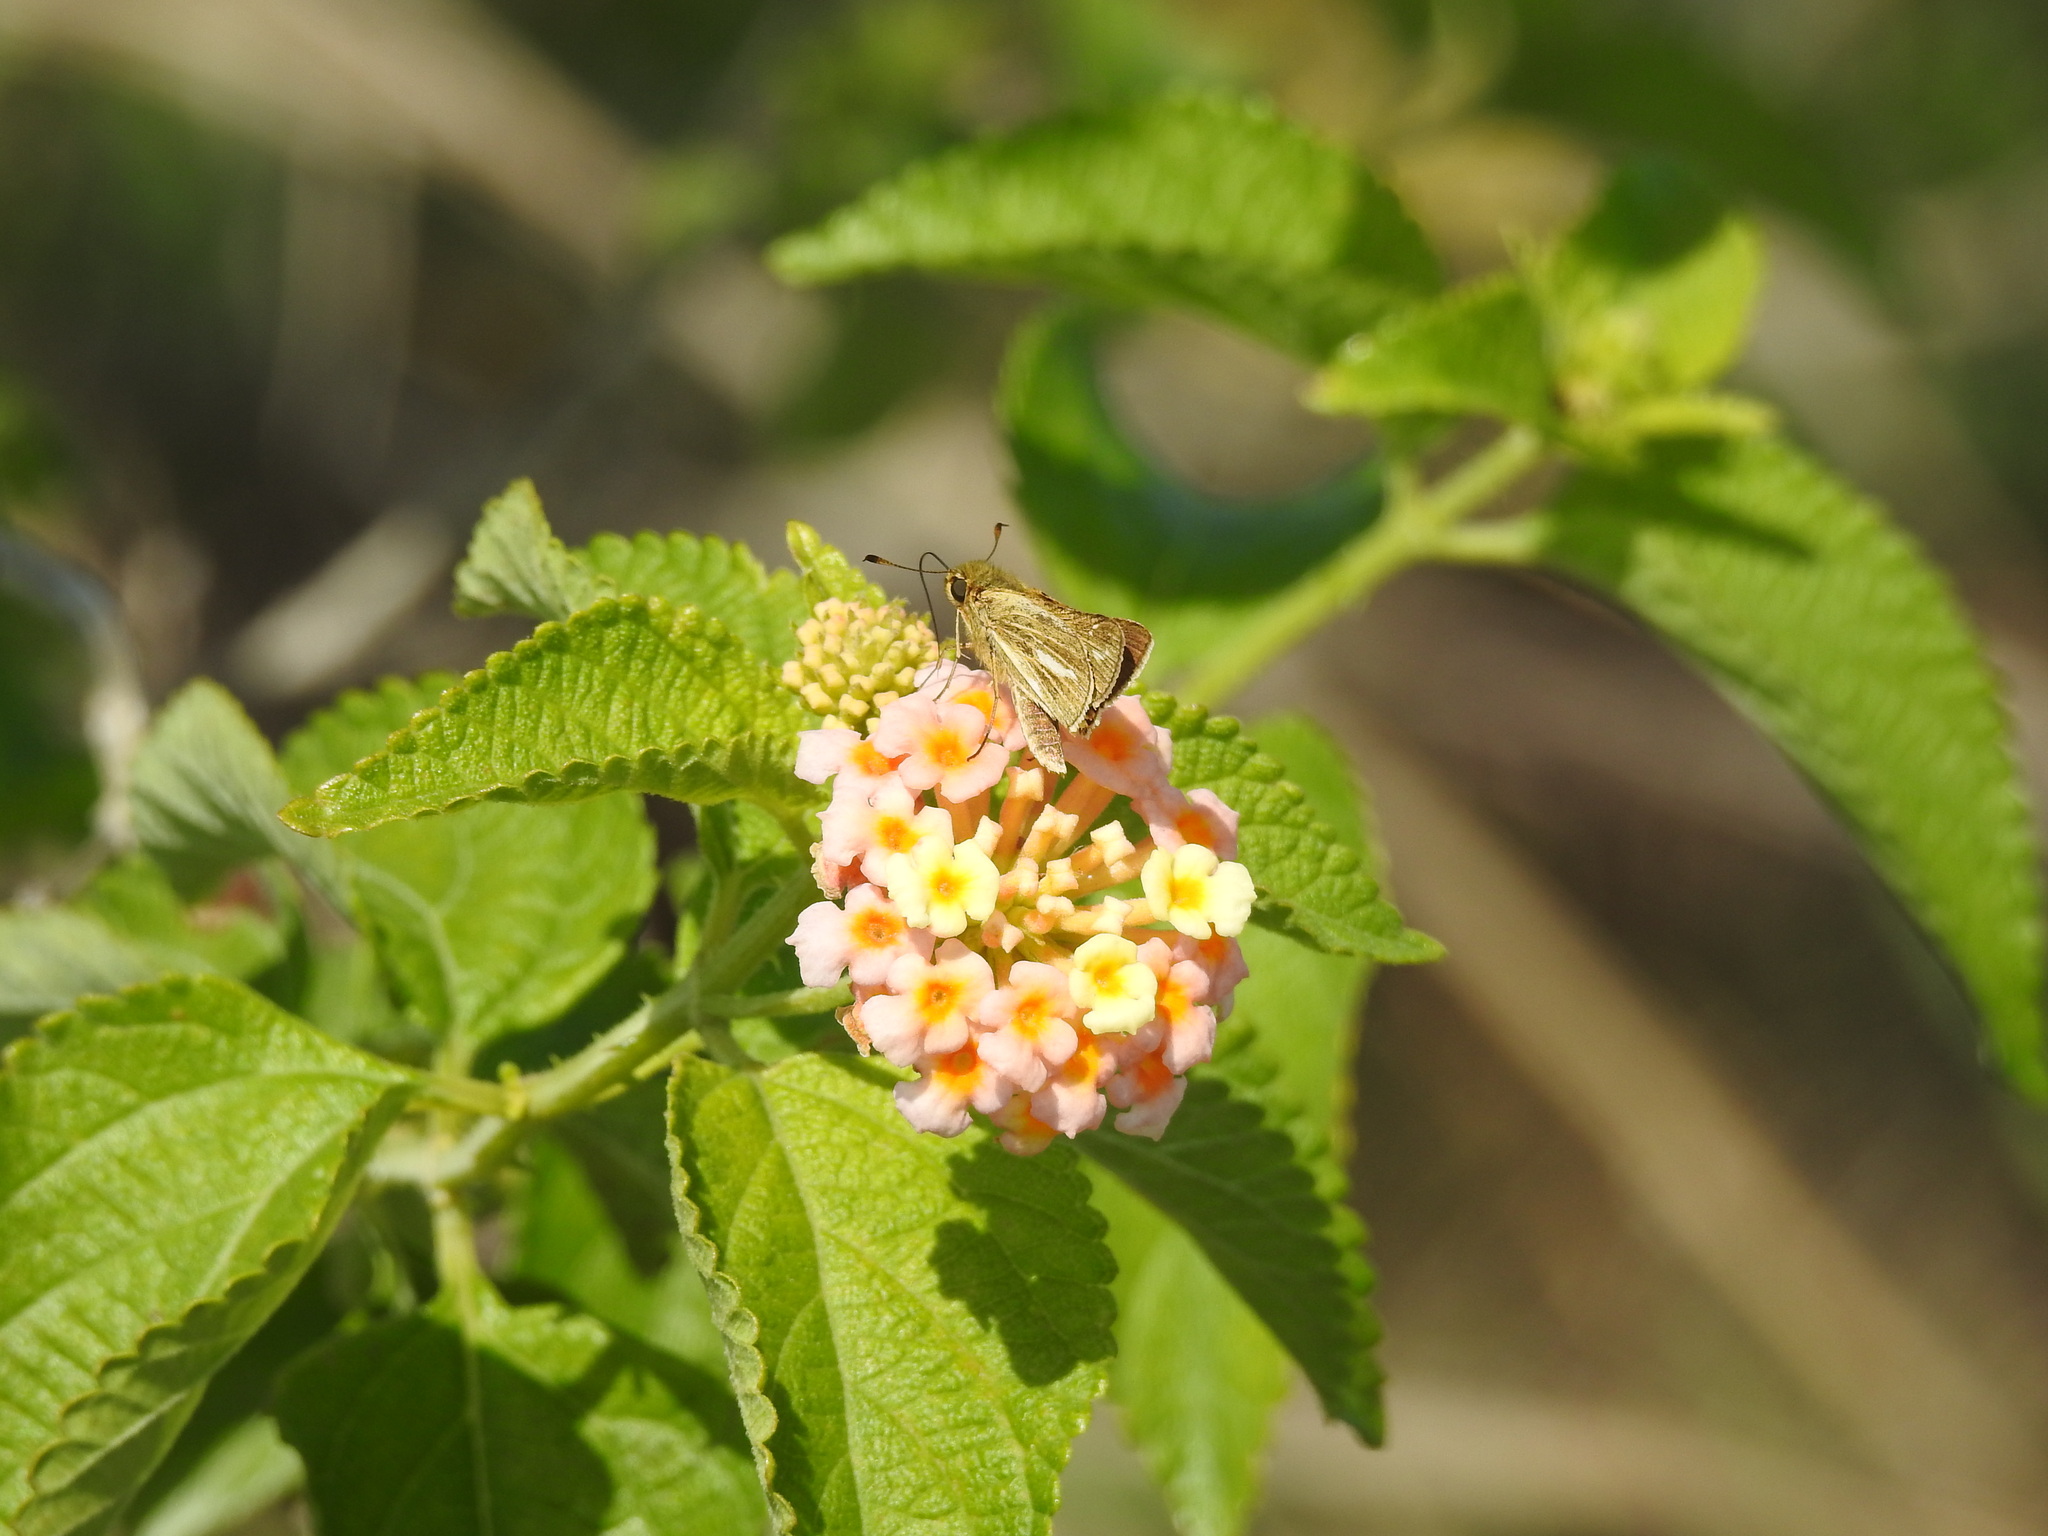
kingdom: Animalia
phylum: Arthropoda
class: Insecta
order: Lepidoptera
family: Hesperiidae
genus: Panoquina
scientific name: Panoquina panoquin
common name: Salt marsh skipper
